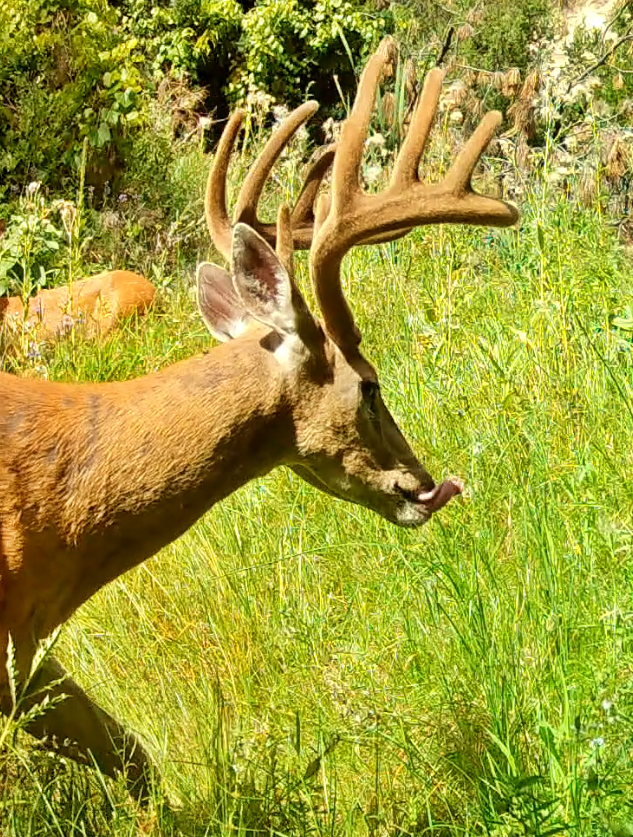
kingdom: Animalia
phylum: Chordata
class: Mammalia
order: Artiodactyla
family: Cervidae
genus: Odocoileus
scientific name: Odocoileus virginianus
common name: White-tailed deer
